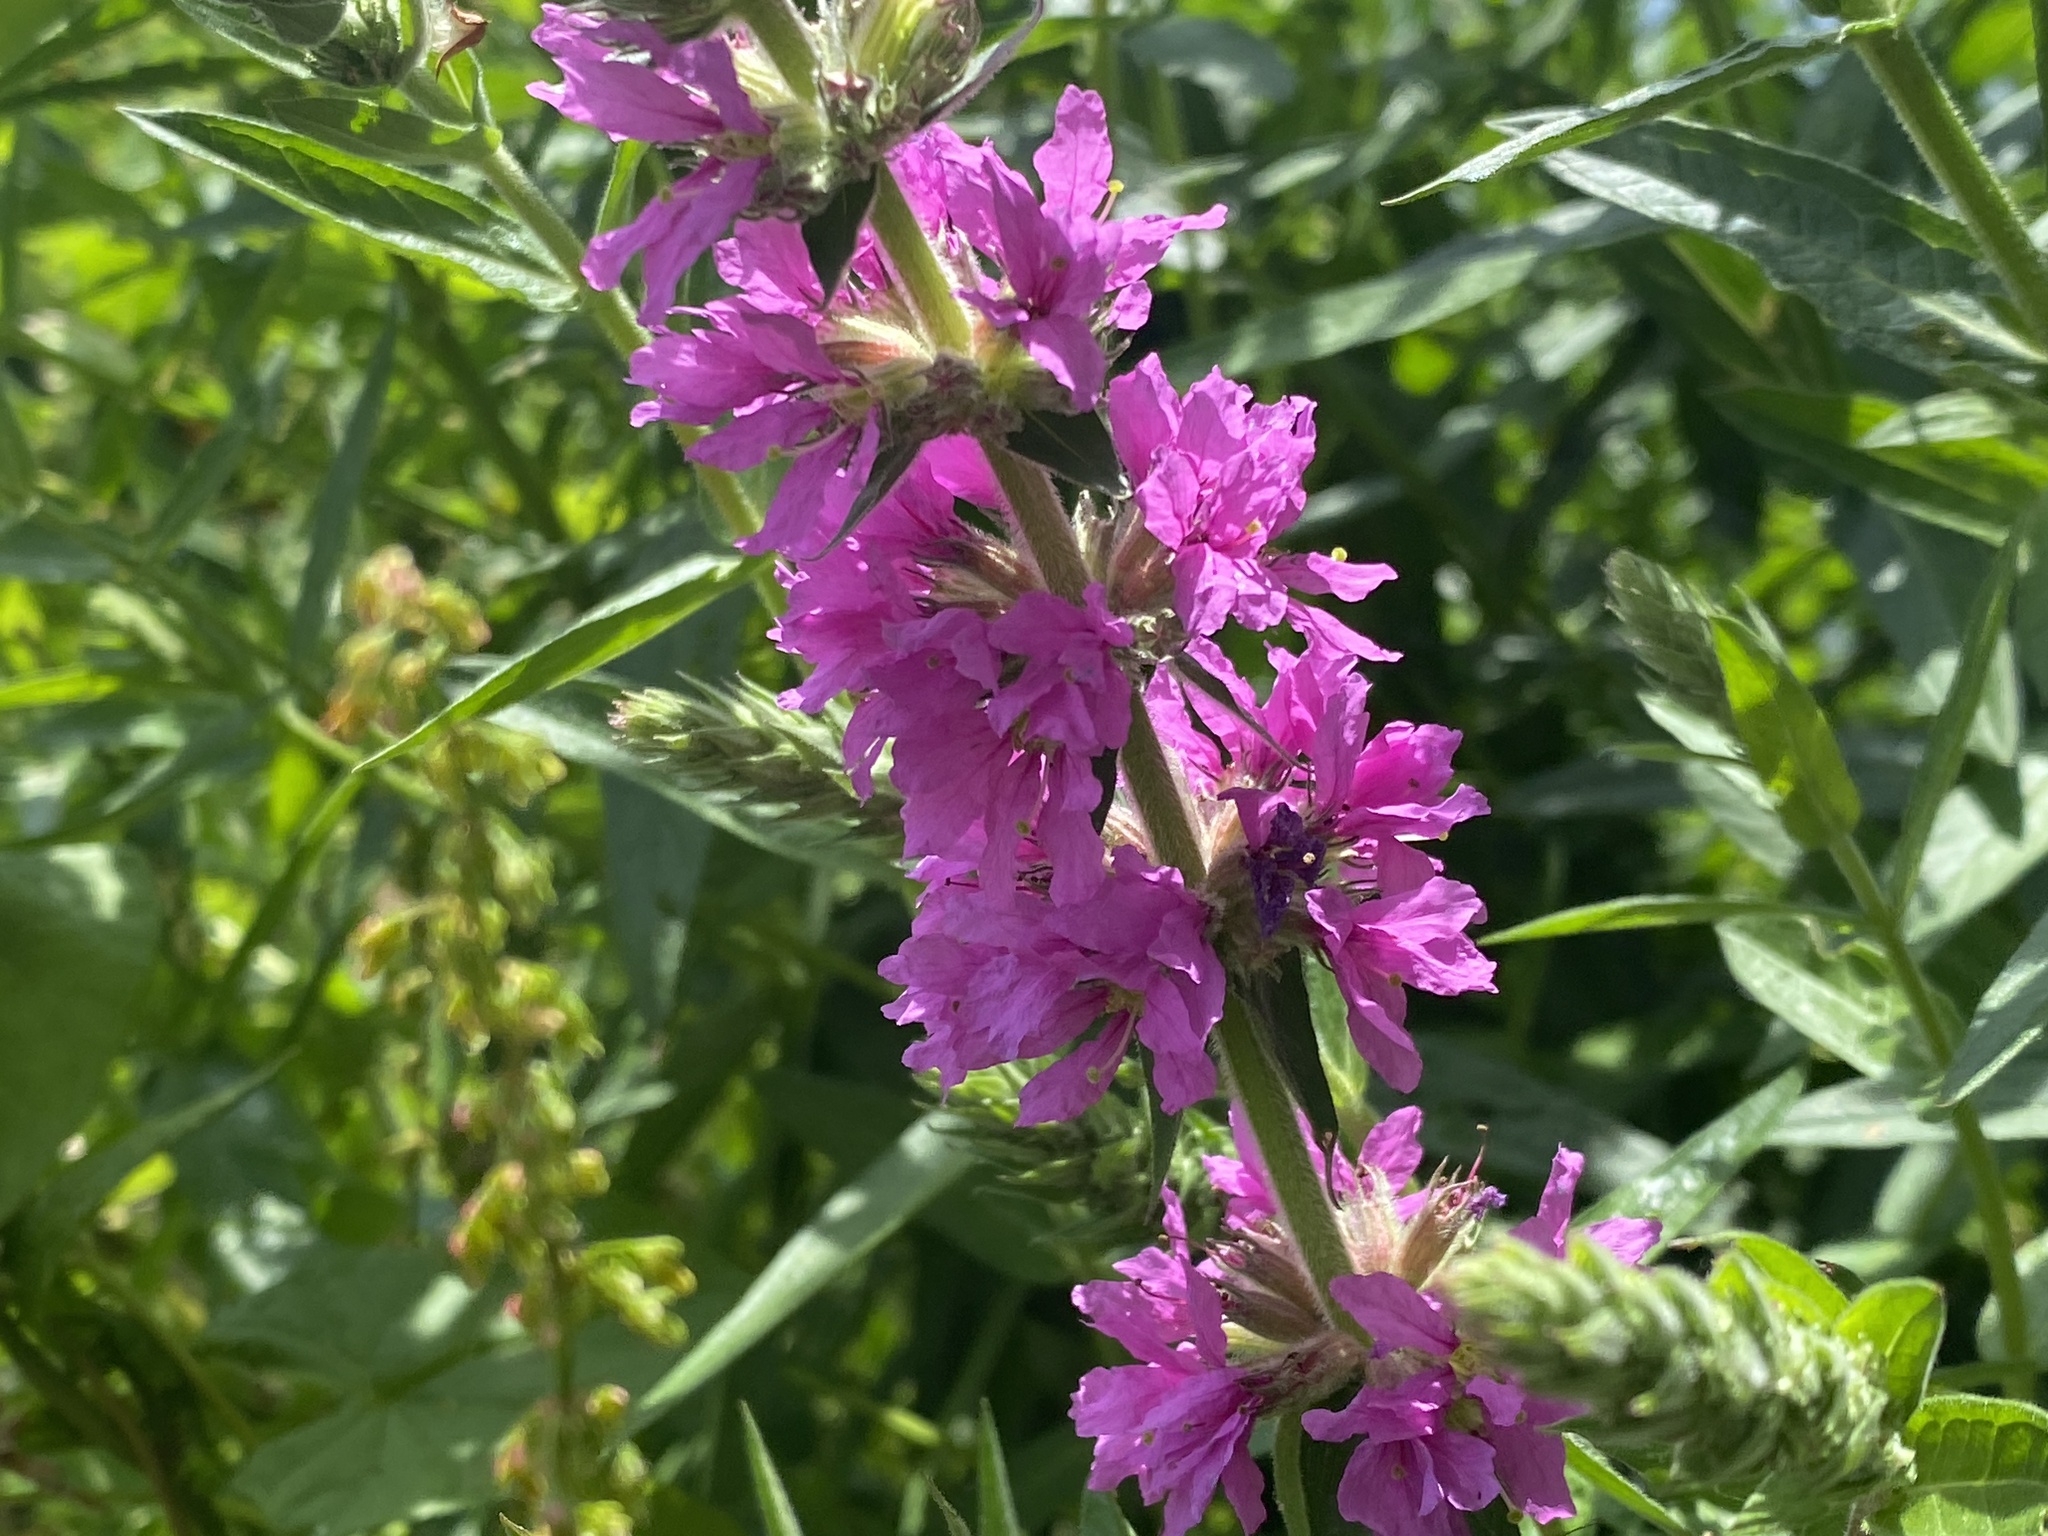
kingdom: Plantae
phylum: Tracheophyta
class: Magnoliopsida
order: Myrtales
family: Lythraceae
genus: Lythrum
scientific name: Lythrum salicaria
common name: Purple loosestrife
